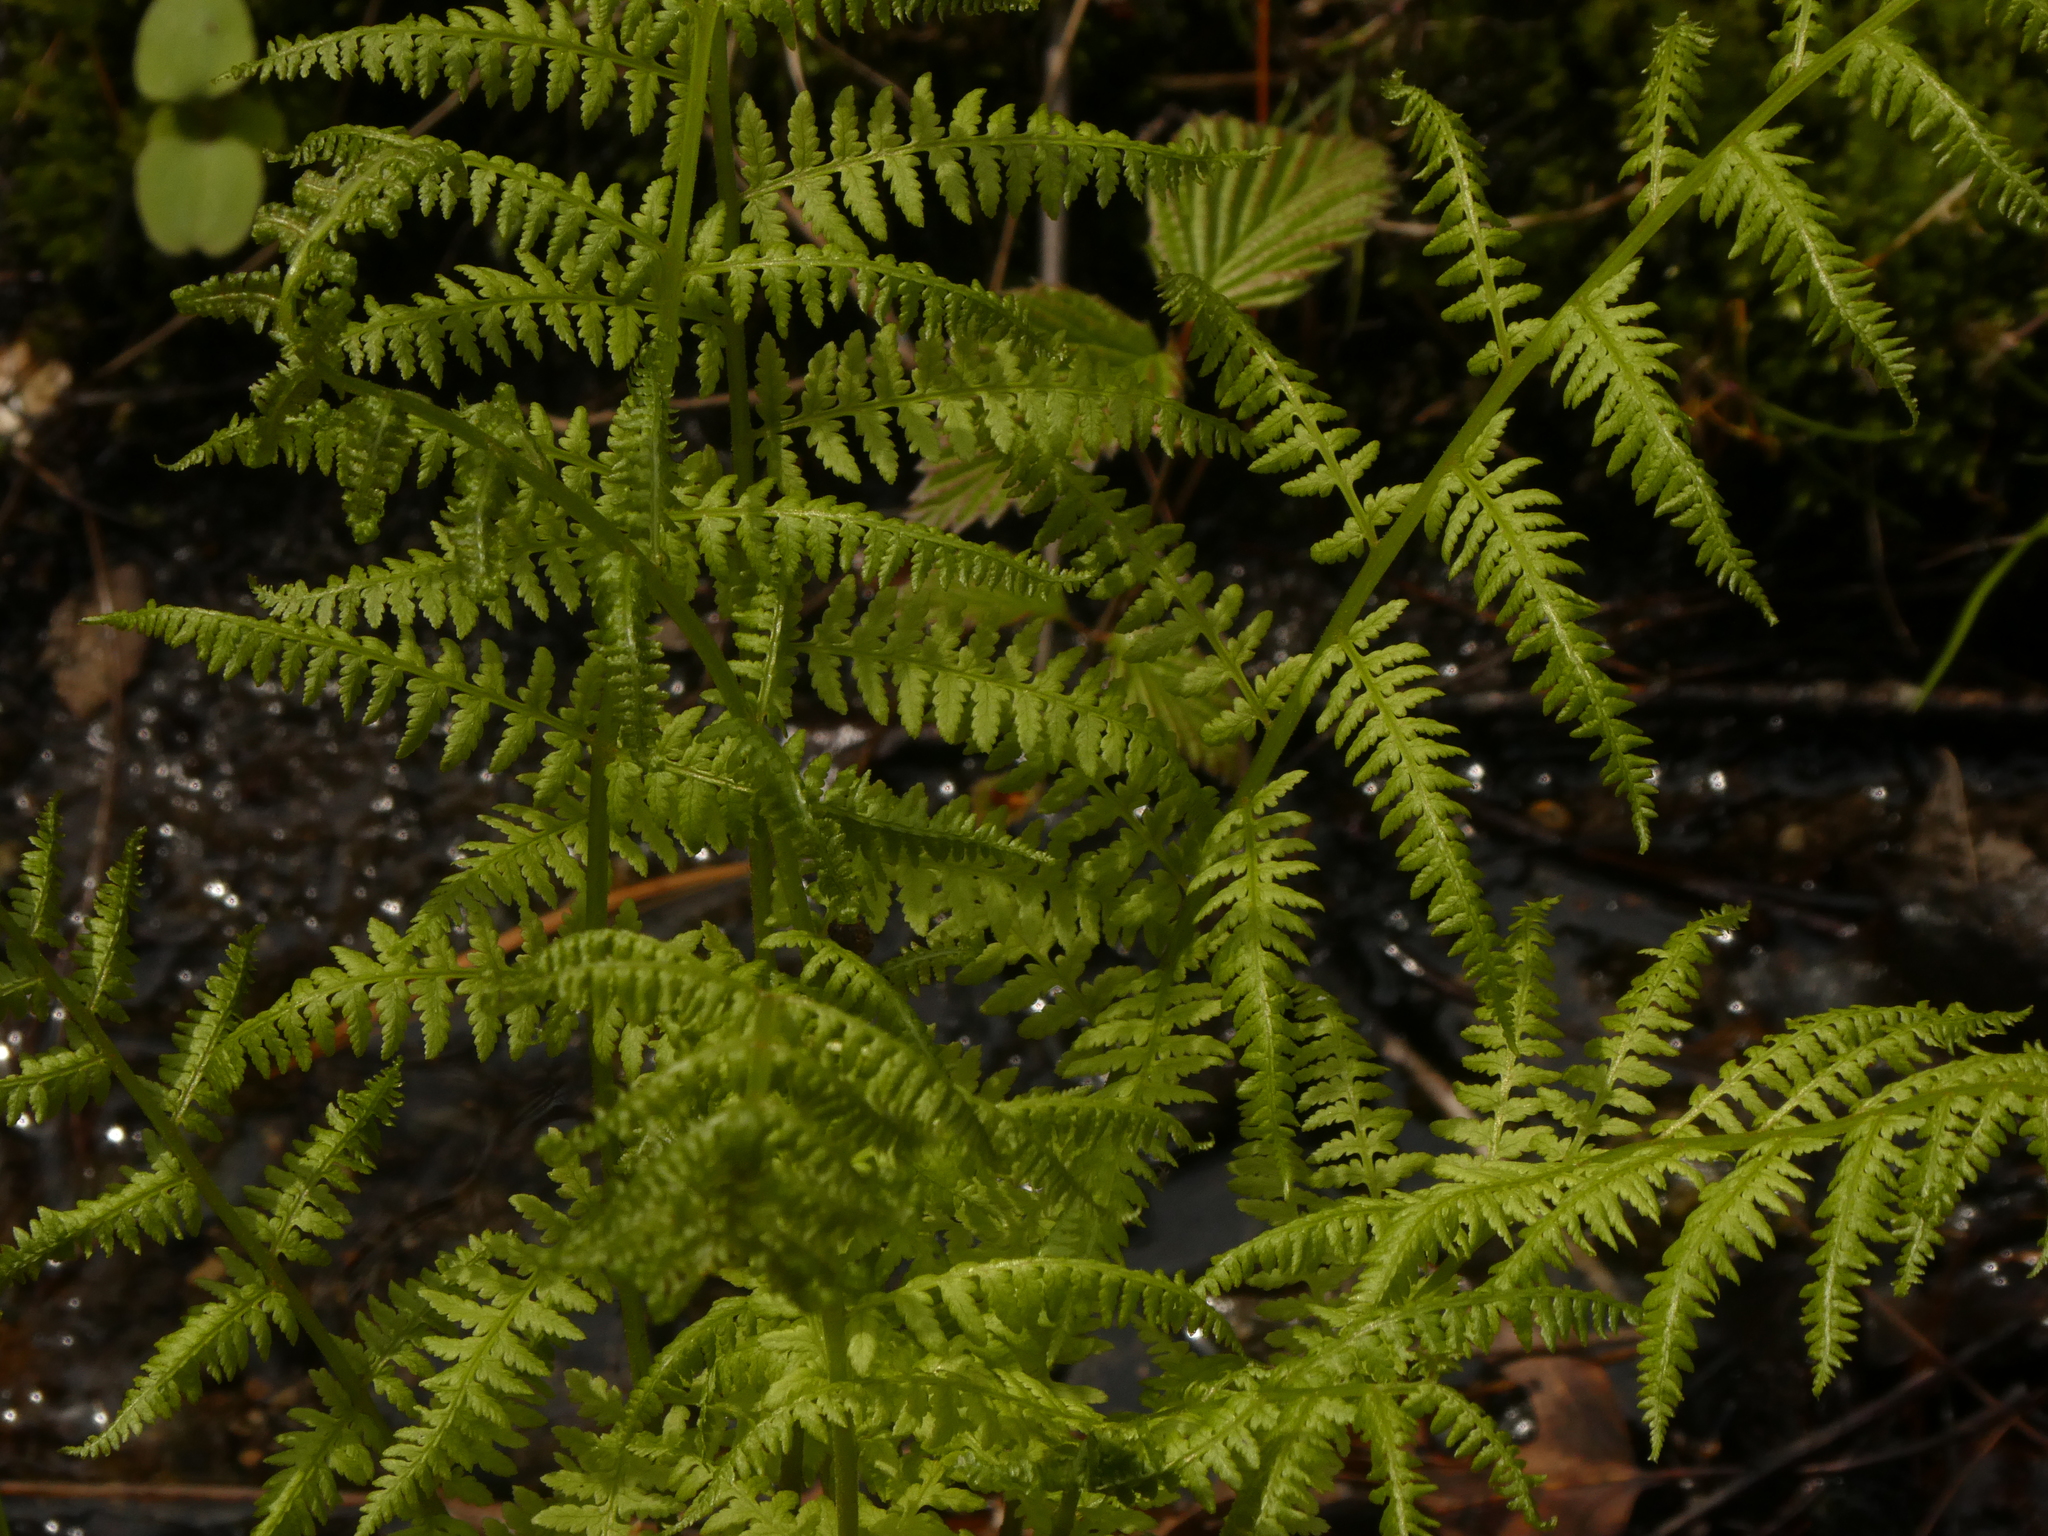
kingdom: Plantae
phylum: Tracheophyta
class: Polypodiopsida
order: Polypodiales
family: Athyriaceae
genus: Athyrium
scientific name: Athyrium angustum
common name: Northern lady fern
